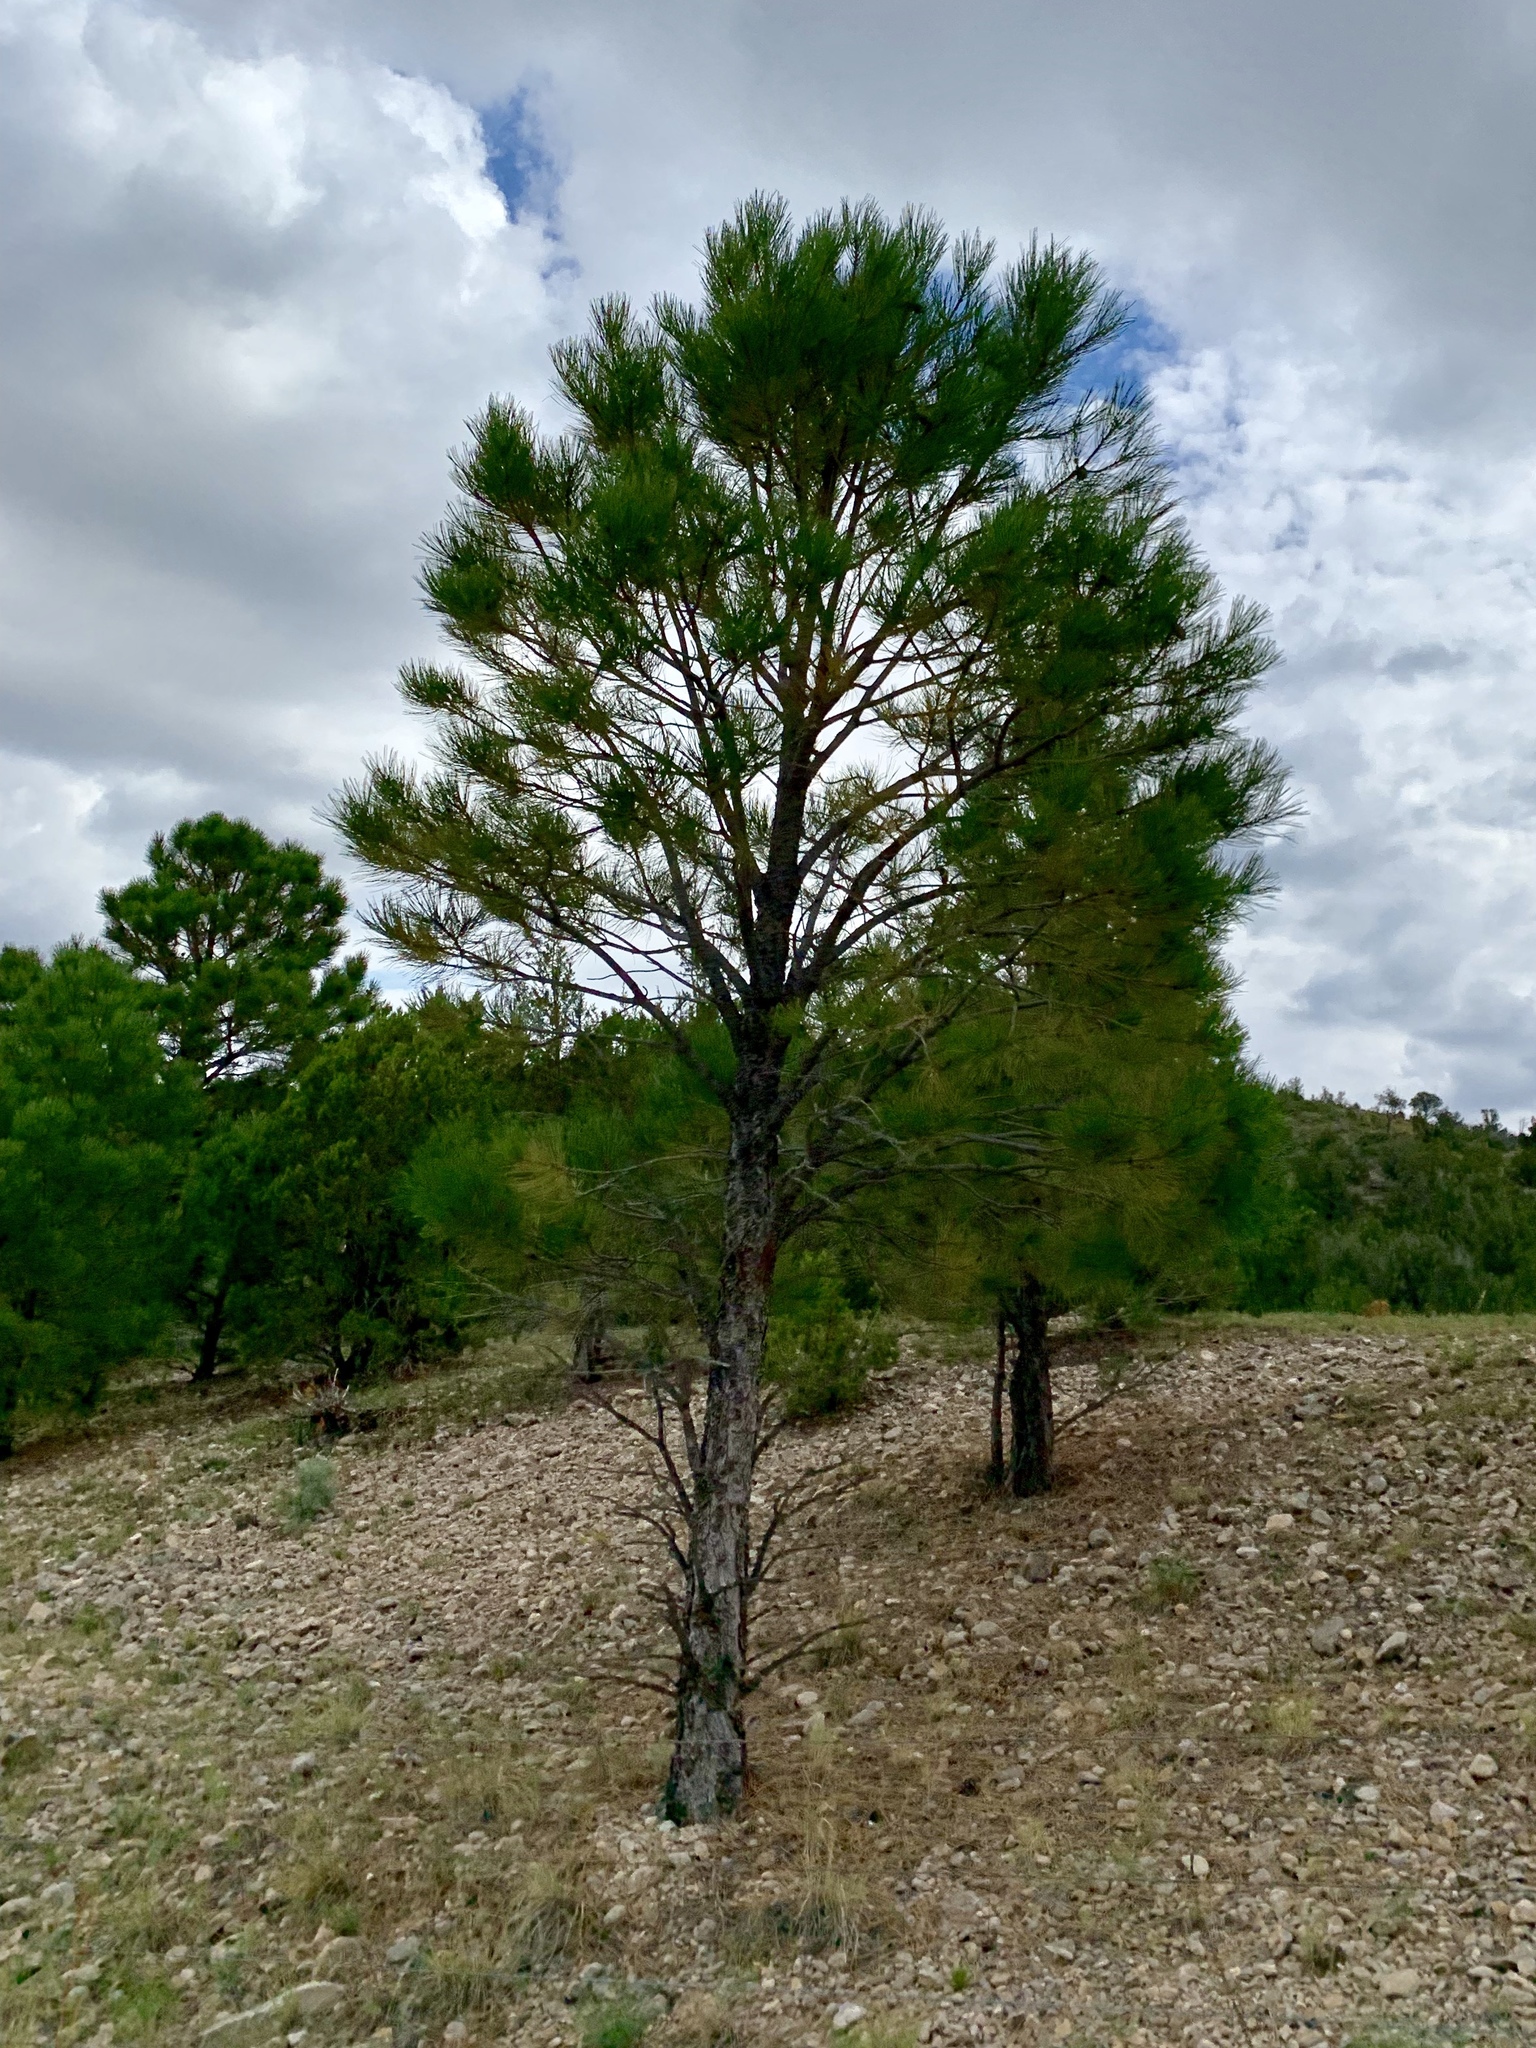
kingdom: Plantae
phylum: Tracheophyta
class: Pinopsida
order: Pinales
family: Pinaceae
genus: Pinus
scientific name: Pinus ponderosa
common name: Western yellow-pine
